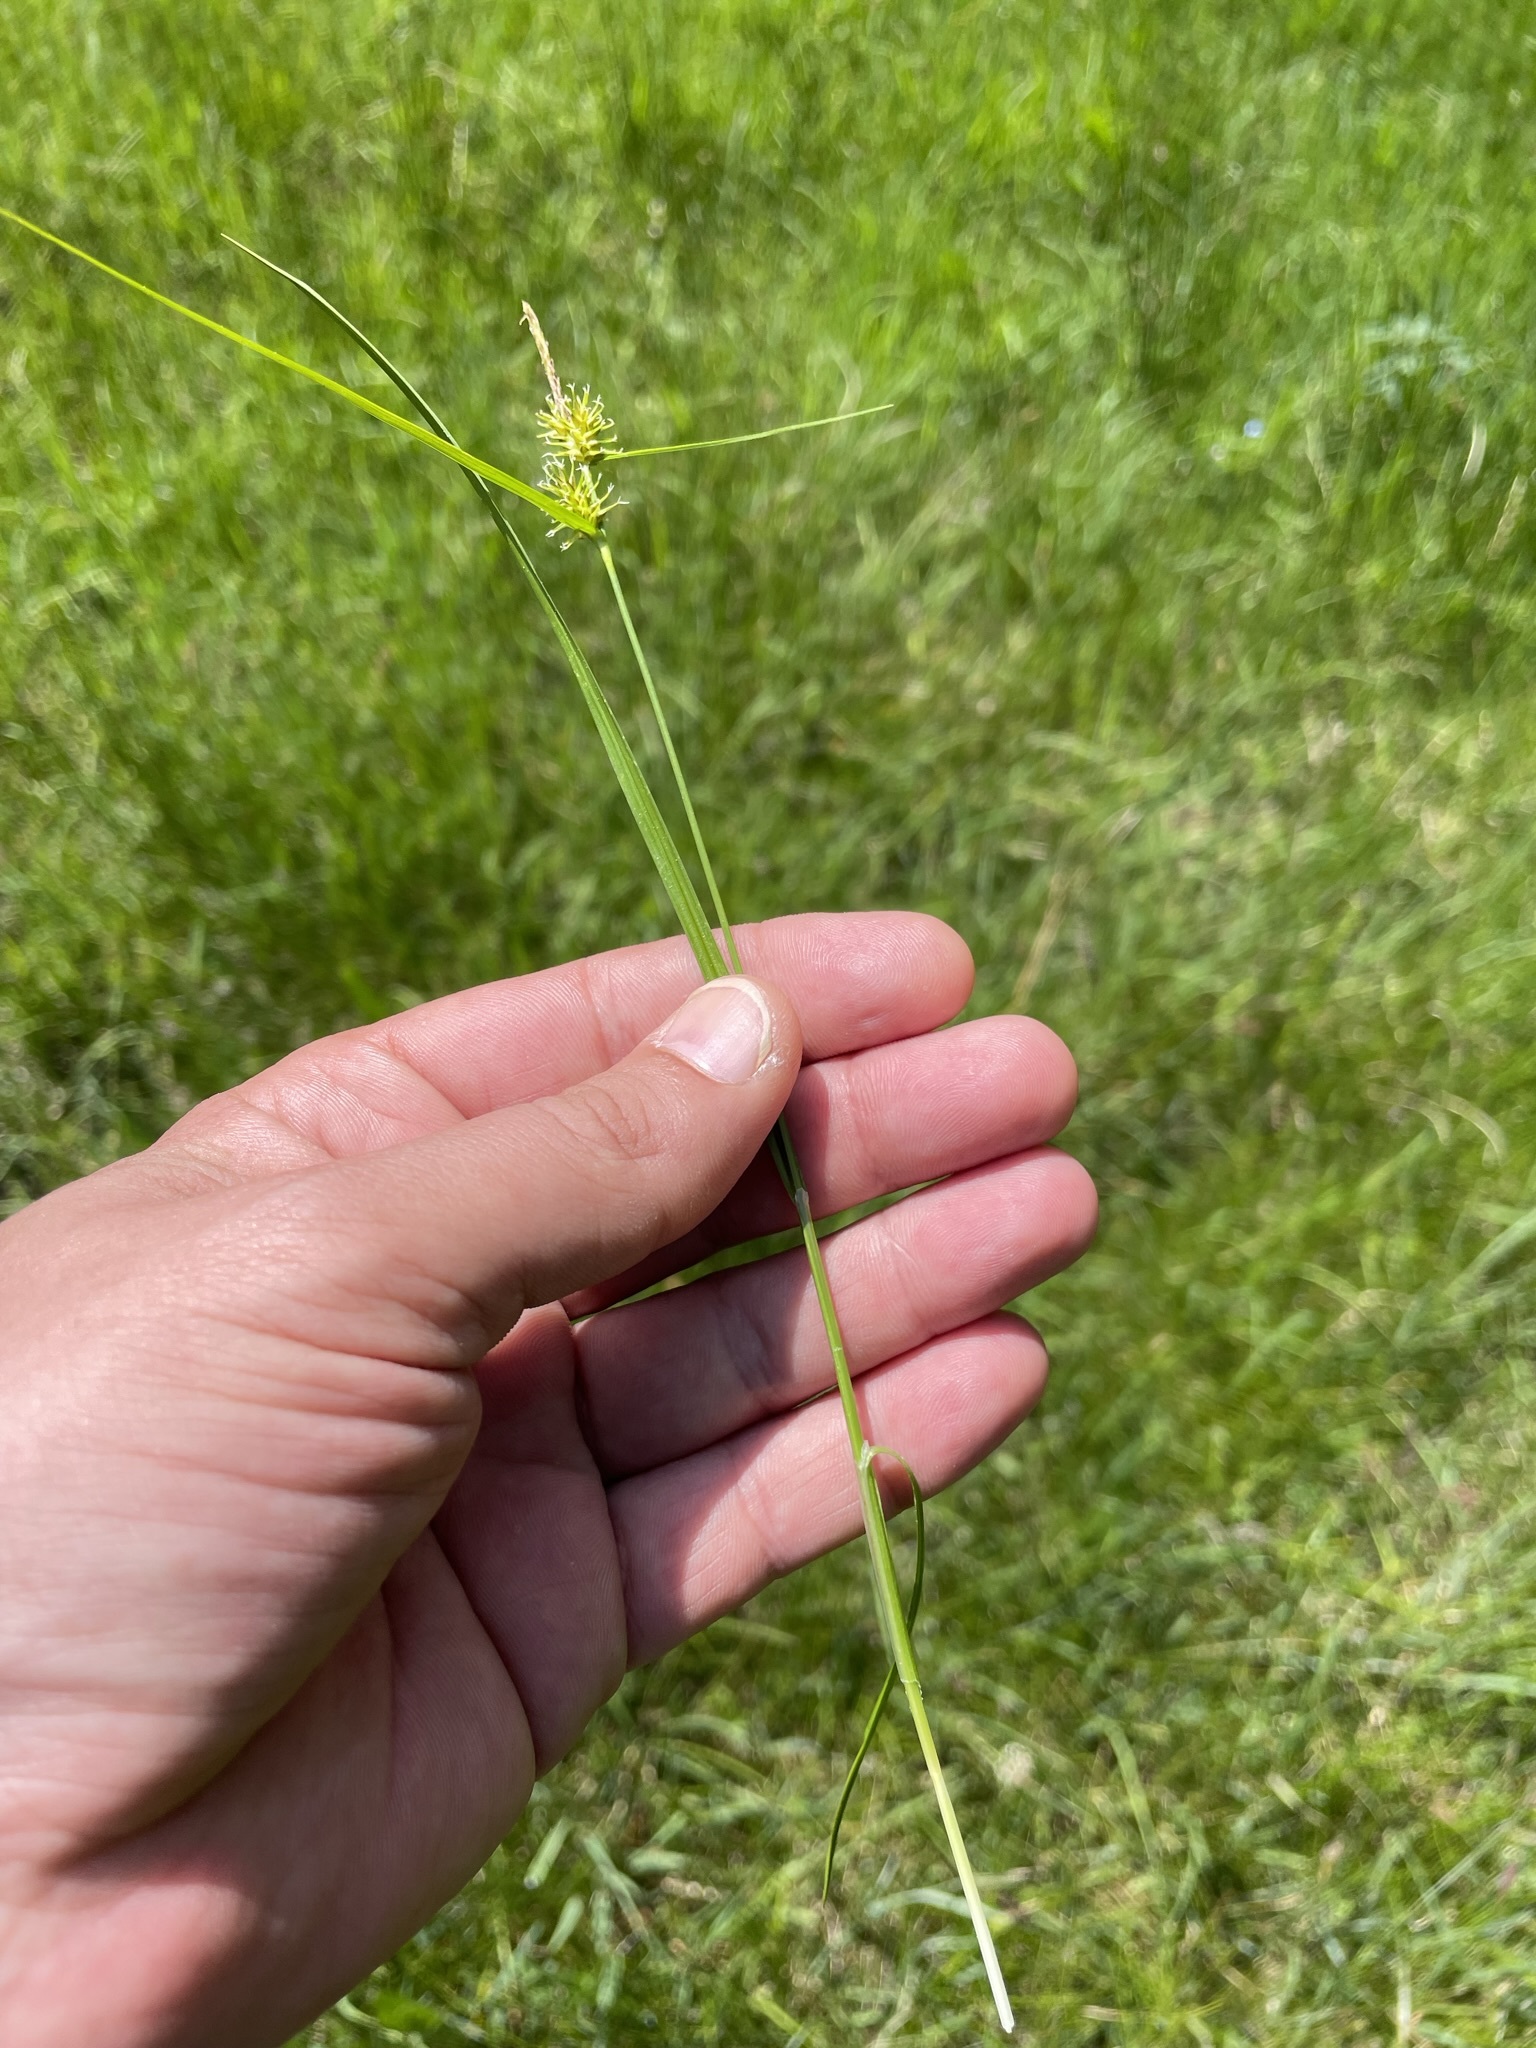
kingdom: Plantae
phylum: Tracheophyta
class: Liliopsida
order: Poales
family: Cyperaceae
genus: Carex
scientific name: Carex flava
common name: Large yellow-sedge
